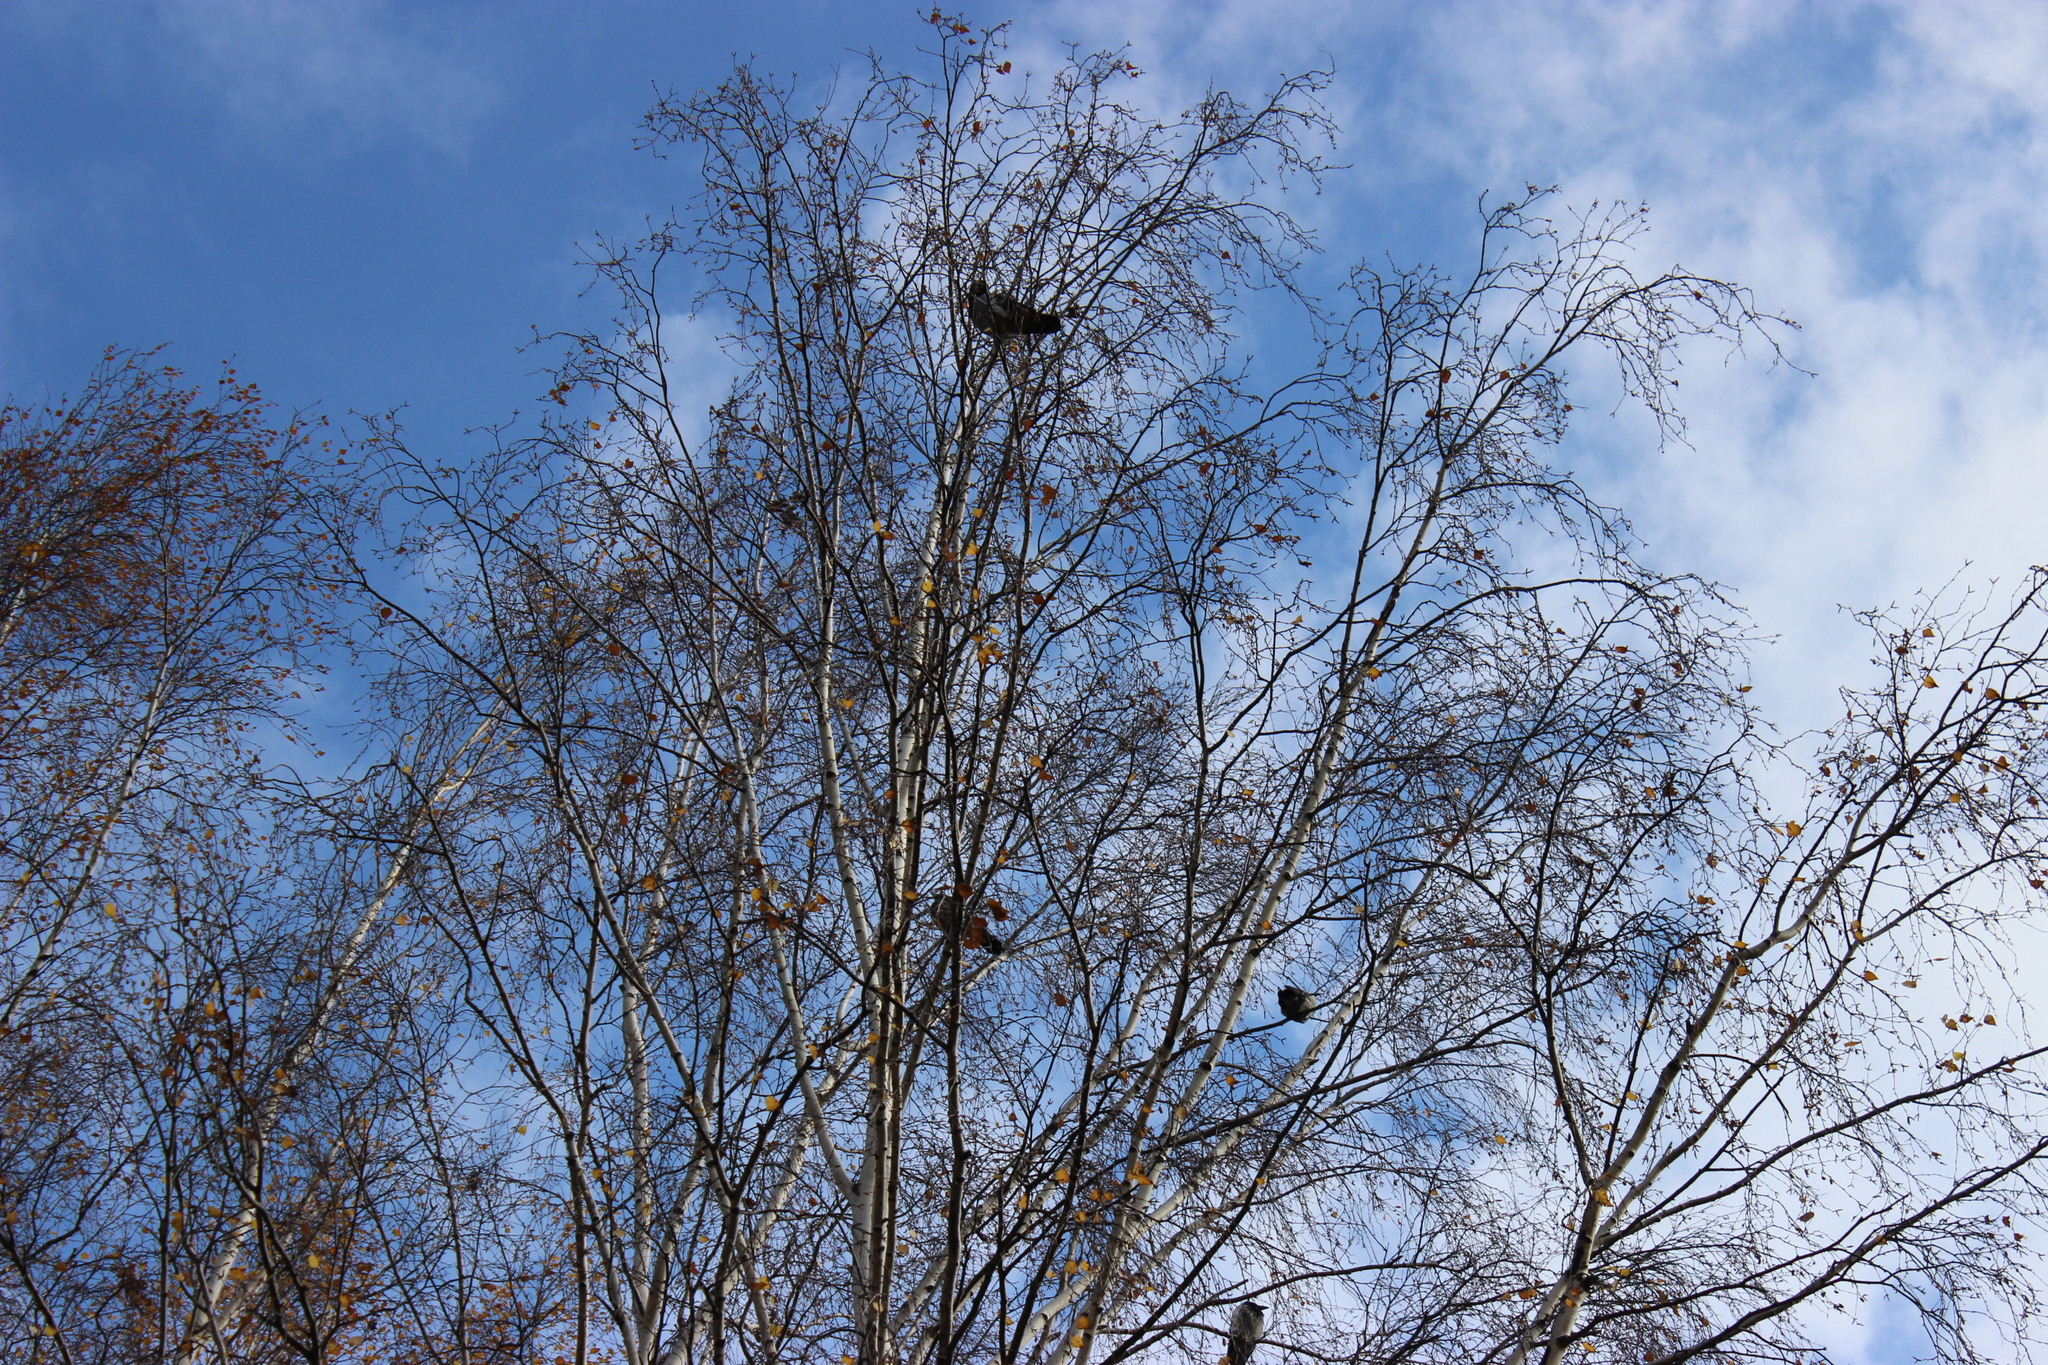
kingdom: Animalia
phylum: Chordata
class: Aves
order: Passeriformes
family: Corvidae
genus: Corvus
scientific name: Corvus cornix
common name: Hooded crow
